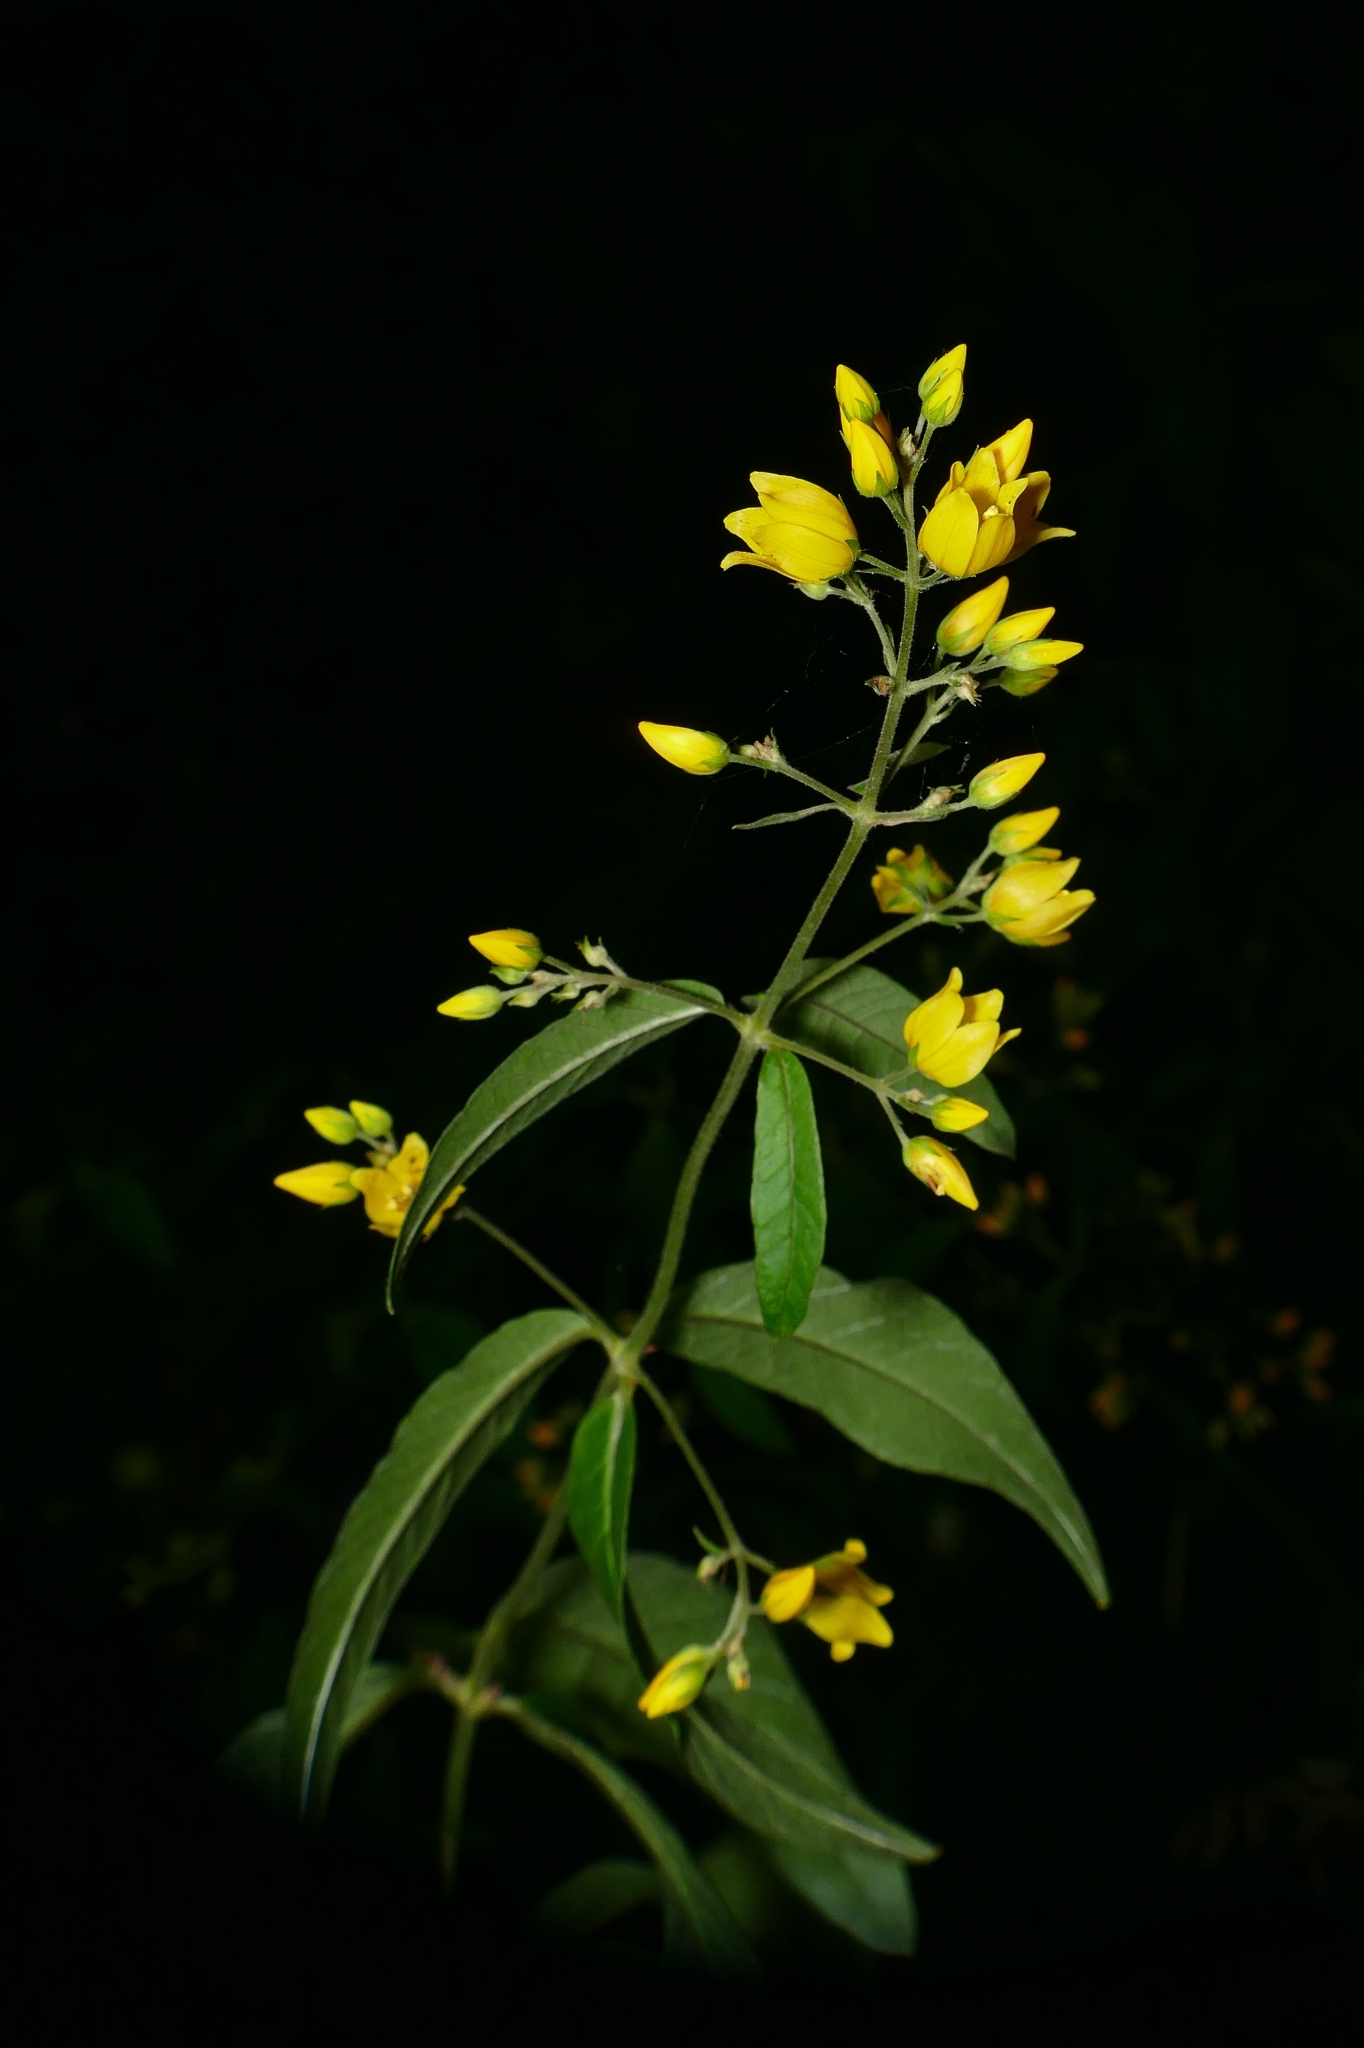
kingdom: Plantae
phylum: Tracheophyta
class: Magnoliopsida
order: Ericales
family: Primulaceae
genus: Lysimachia
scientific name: Lysimachia vulgaris
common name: Yellow loosestrife
